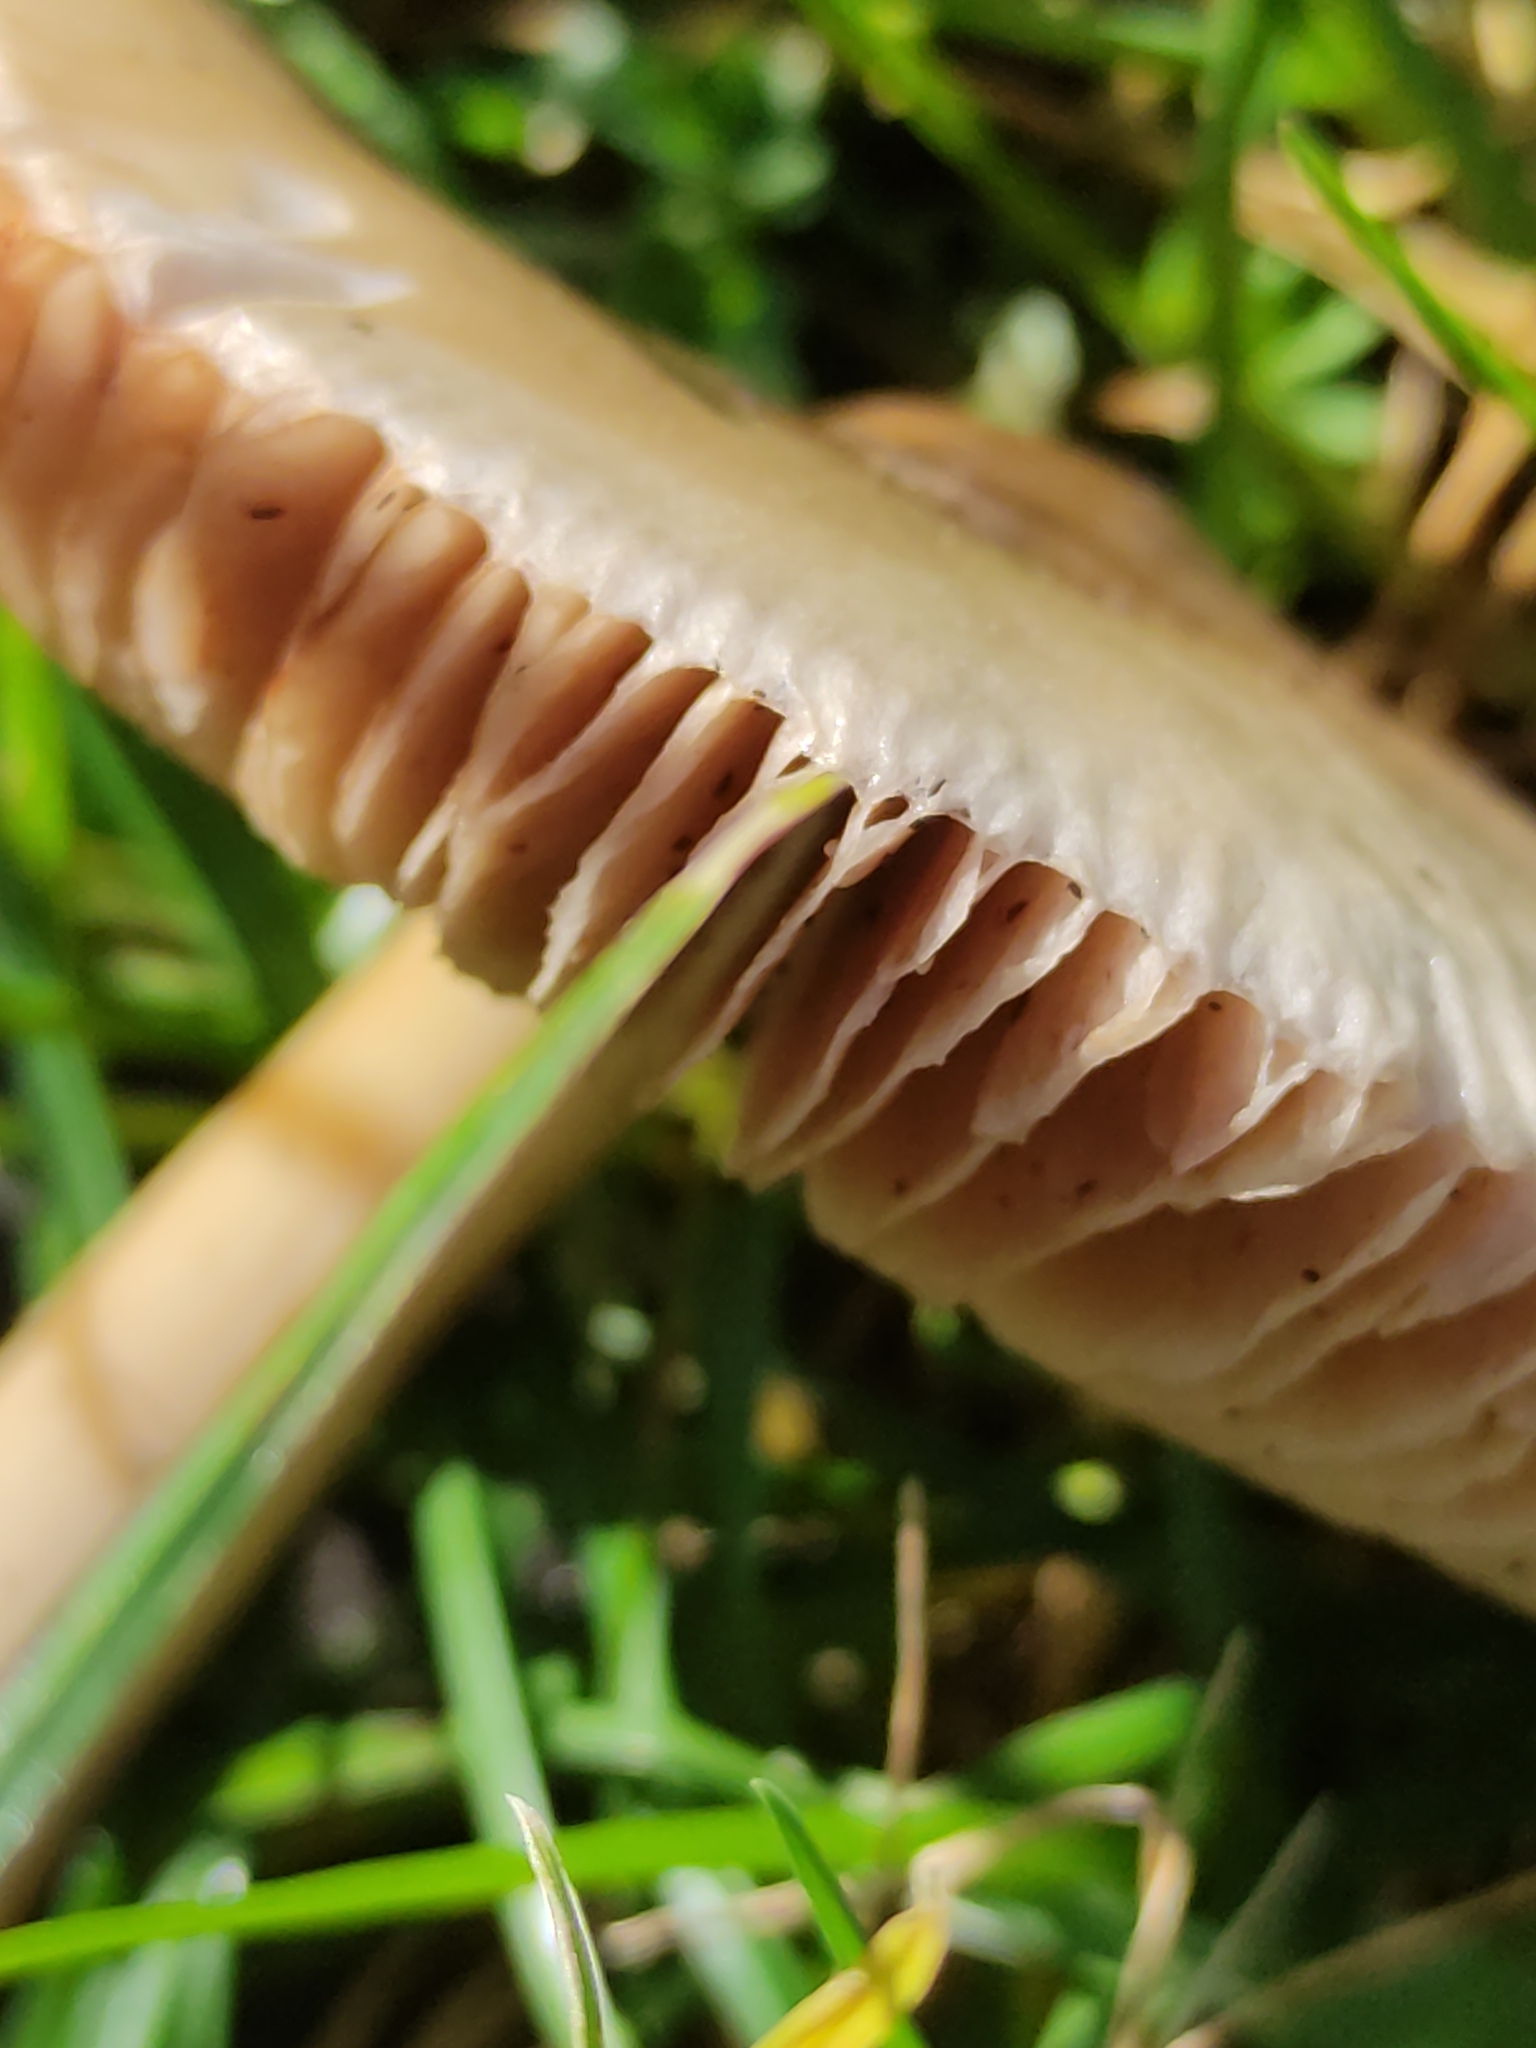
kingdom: Fungi
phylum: Basidiomycota
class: Agaricomycetes
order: Agaricales
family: Pluteaceae
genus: Volvopluteus
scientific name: Volvopluteus gloiocephalus
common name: Stubble rosegill
